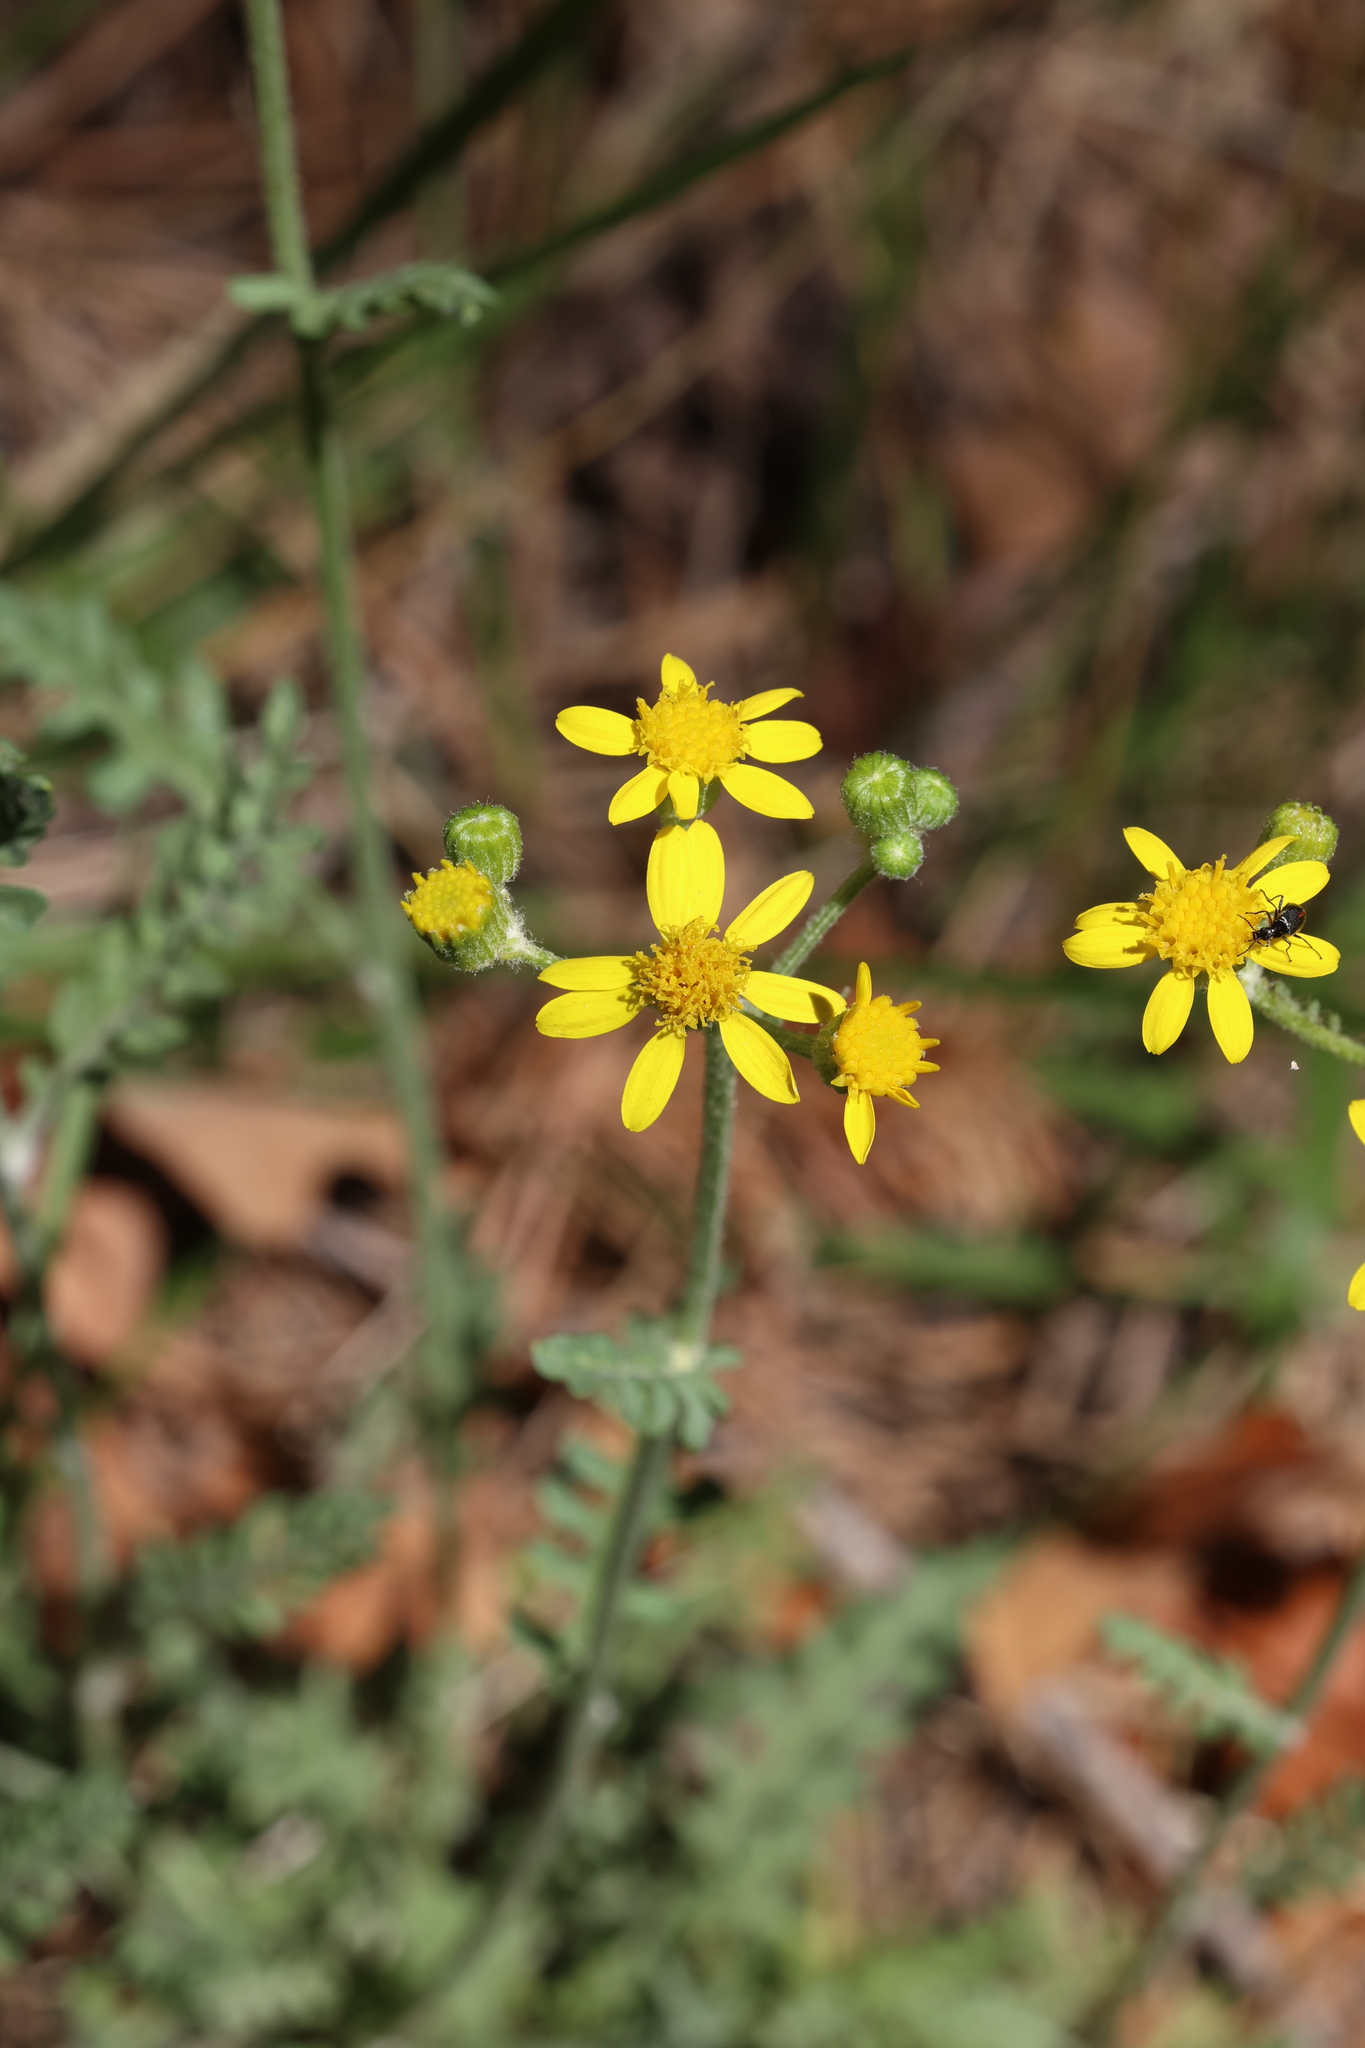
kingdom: Plantae
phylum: Tracheophyta
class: Magnoliopsida
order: Asterales
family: Asteraceae
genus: Packera
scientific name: Packera fendleri
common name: Notch-leaf butterweed
